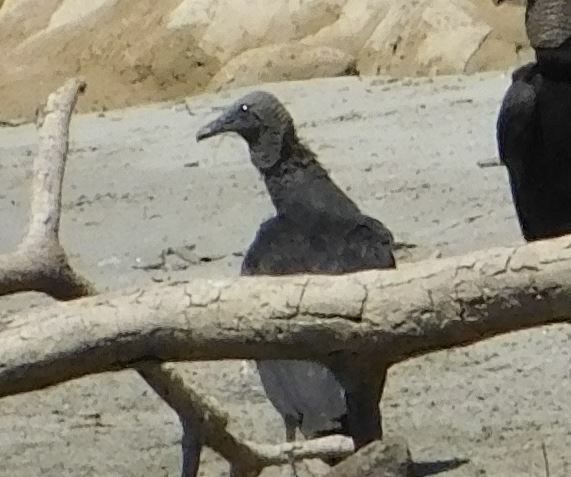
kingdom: Animalia
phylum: Chordata
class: Aves
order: Accipitriformes
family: Cathartidae
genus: Coragyps
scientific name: Coragyps atratus
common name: Black vulture
